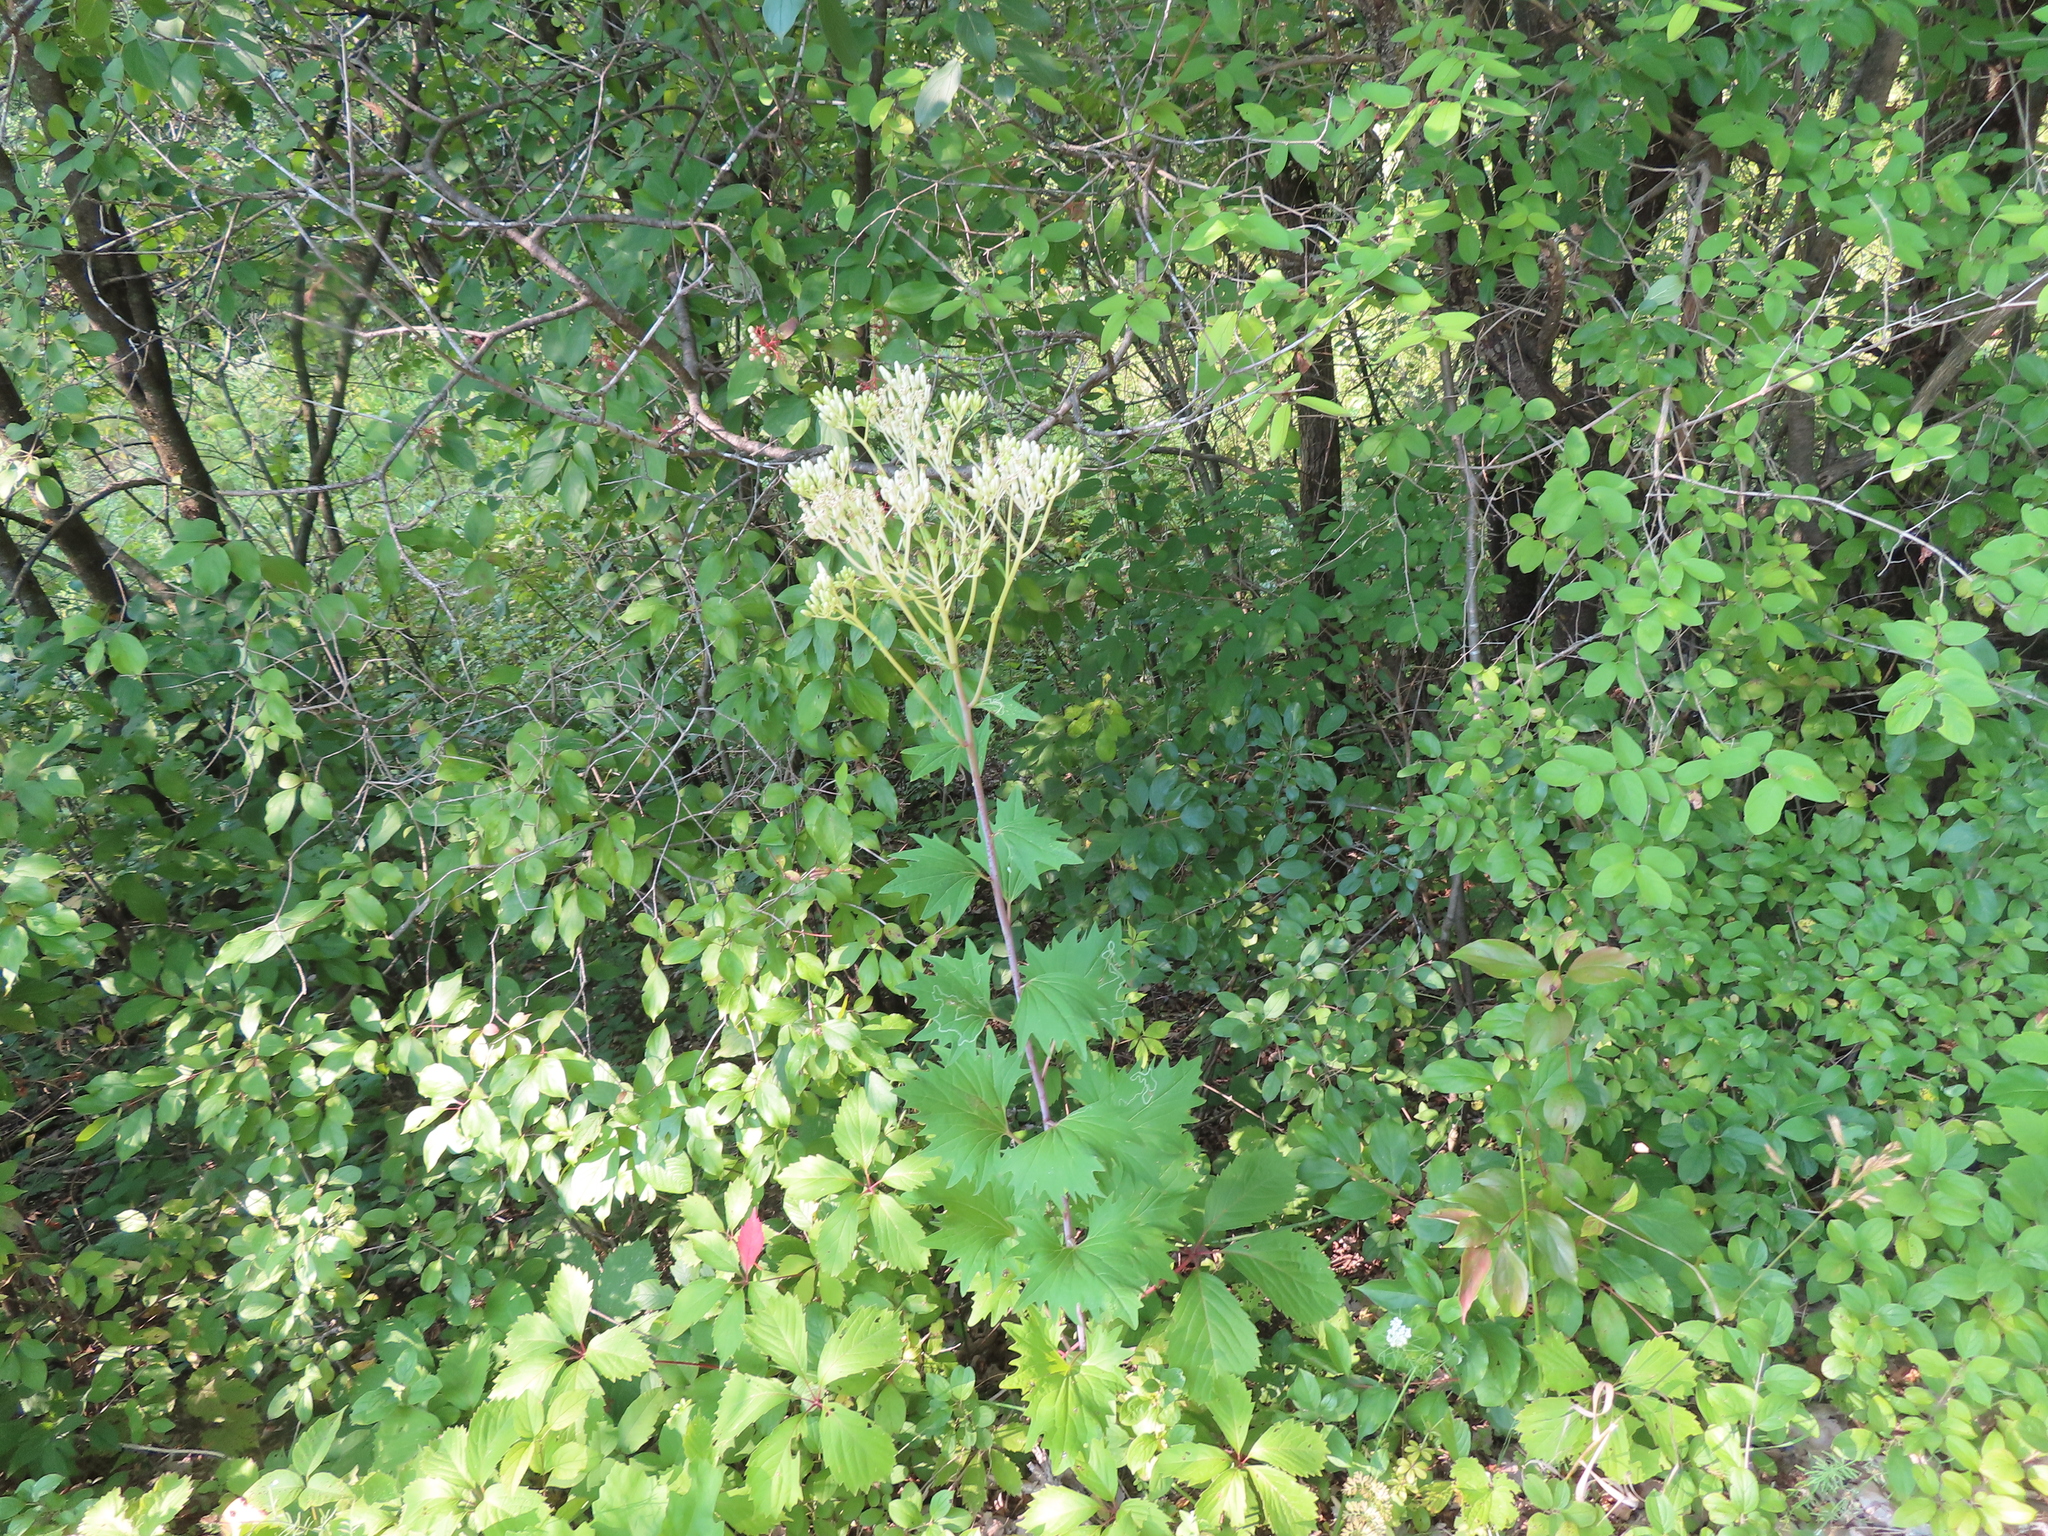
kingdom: Plantae
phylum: Tracheophyta
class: Magnoliopsida
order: Asterales
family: Asteraceae
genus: Arnoglossum
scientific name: Arnoglossum atriplicifolium
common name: Pale indian-plantain
